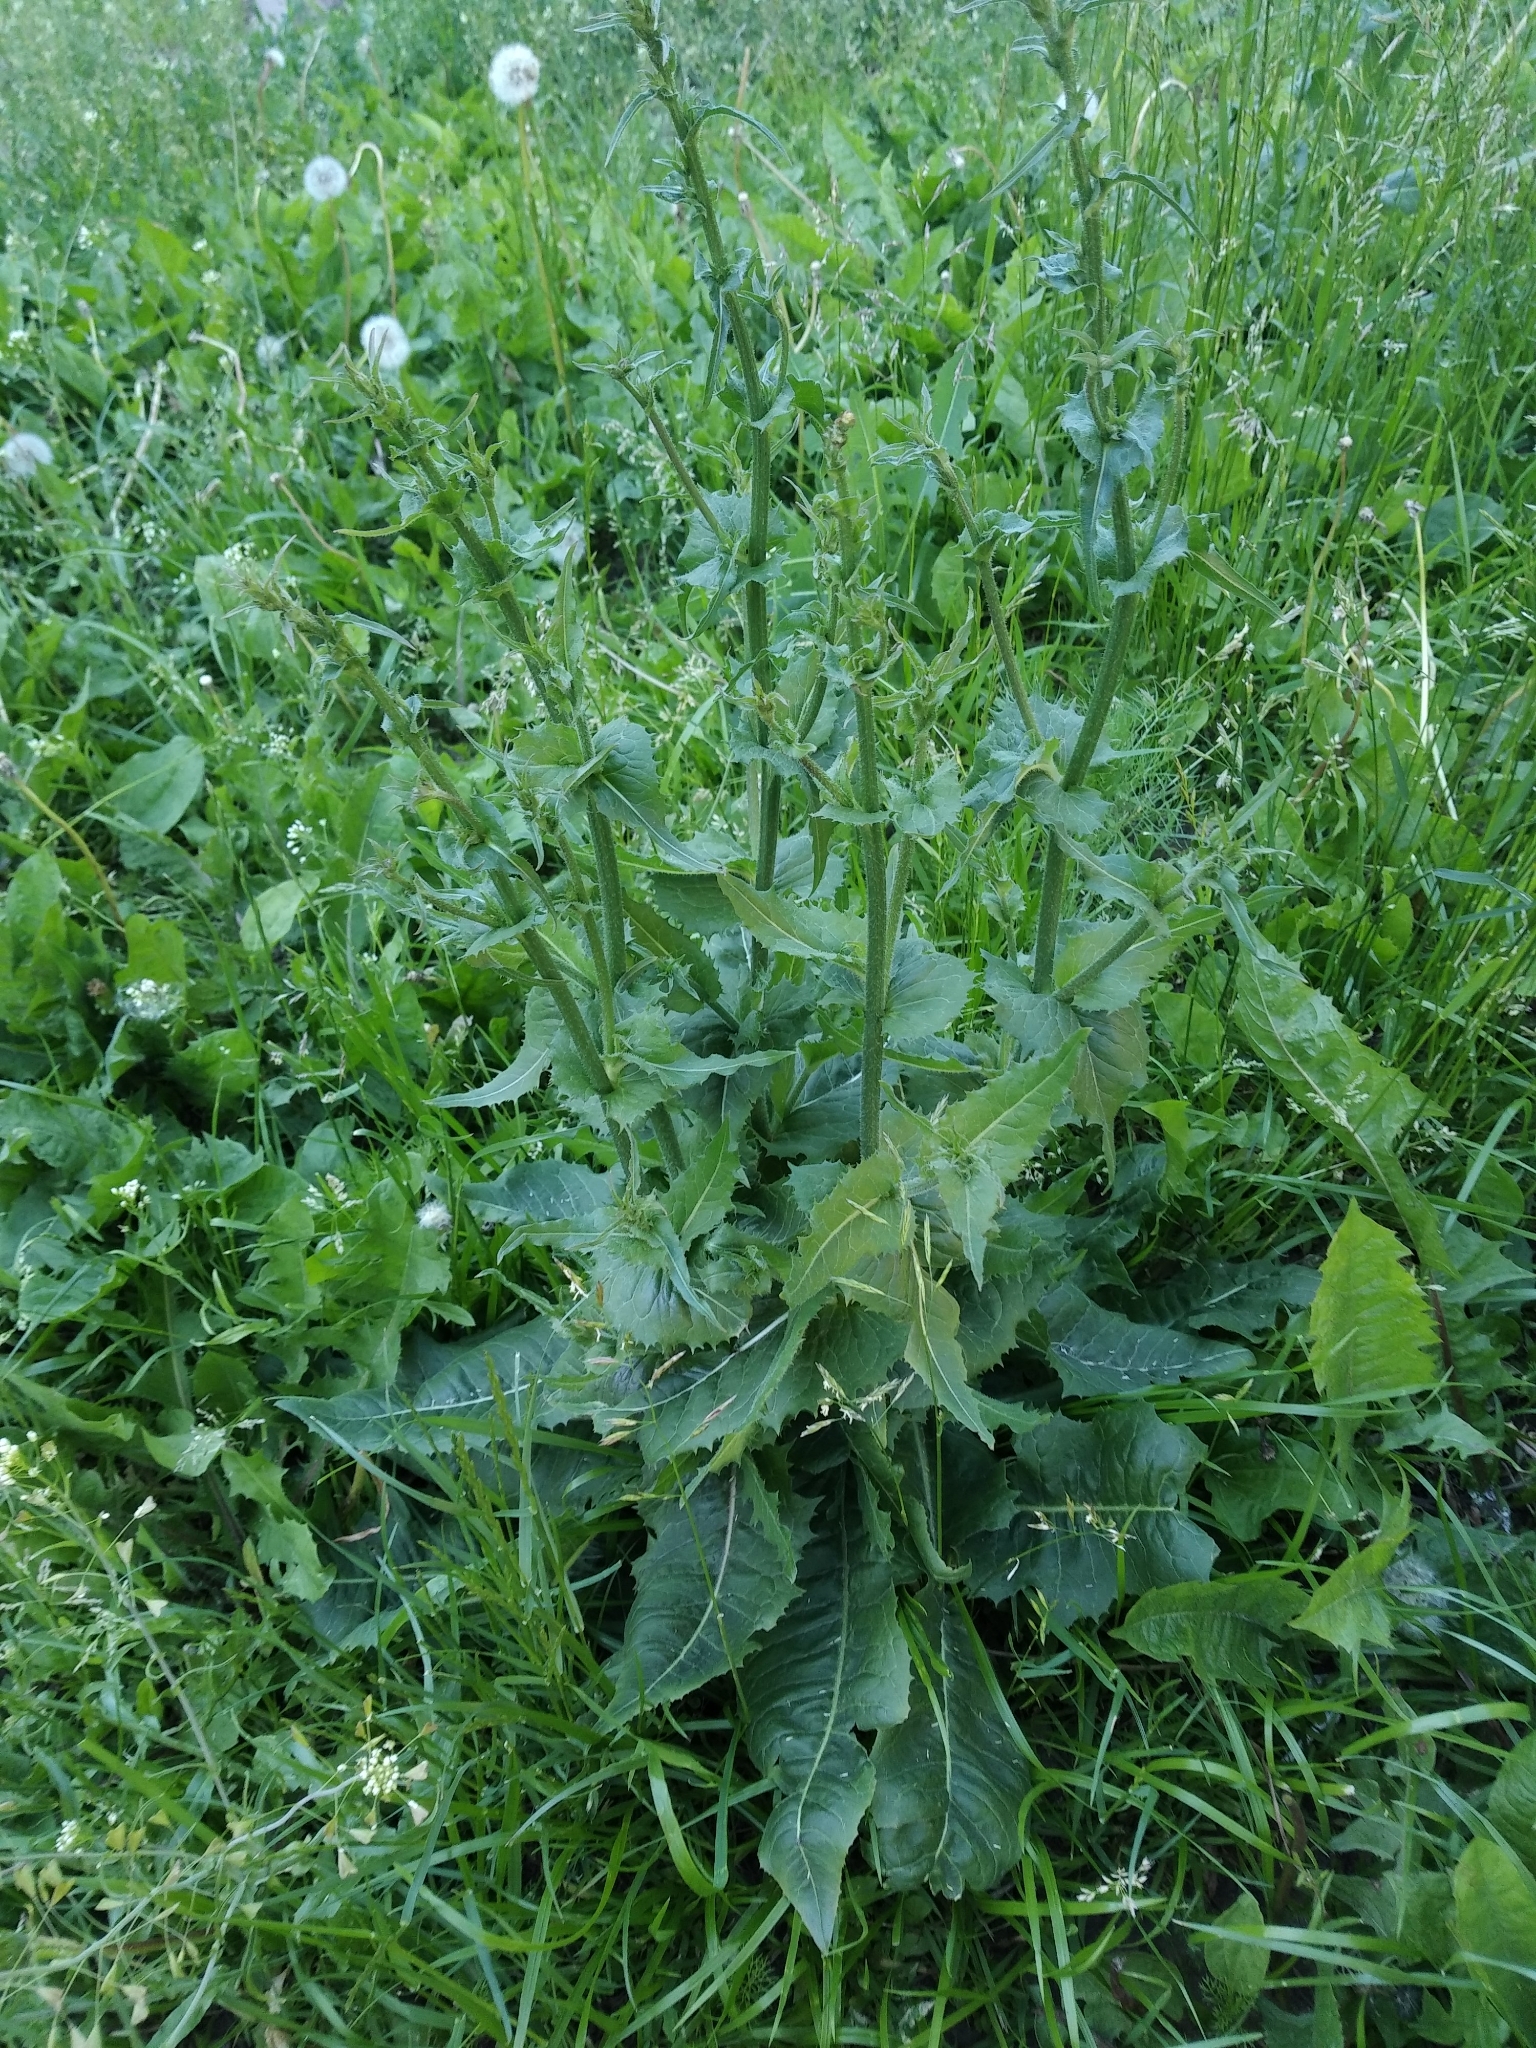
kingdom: Plantae
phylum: Tracheophyta
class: Magnoliopsida
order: Asterales
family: Asteraceae
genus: Cichorium
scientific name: Cichorium intybus
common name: Chicory
